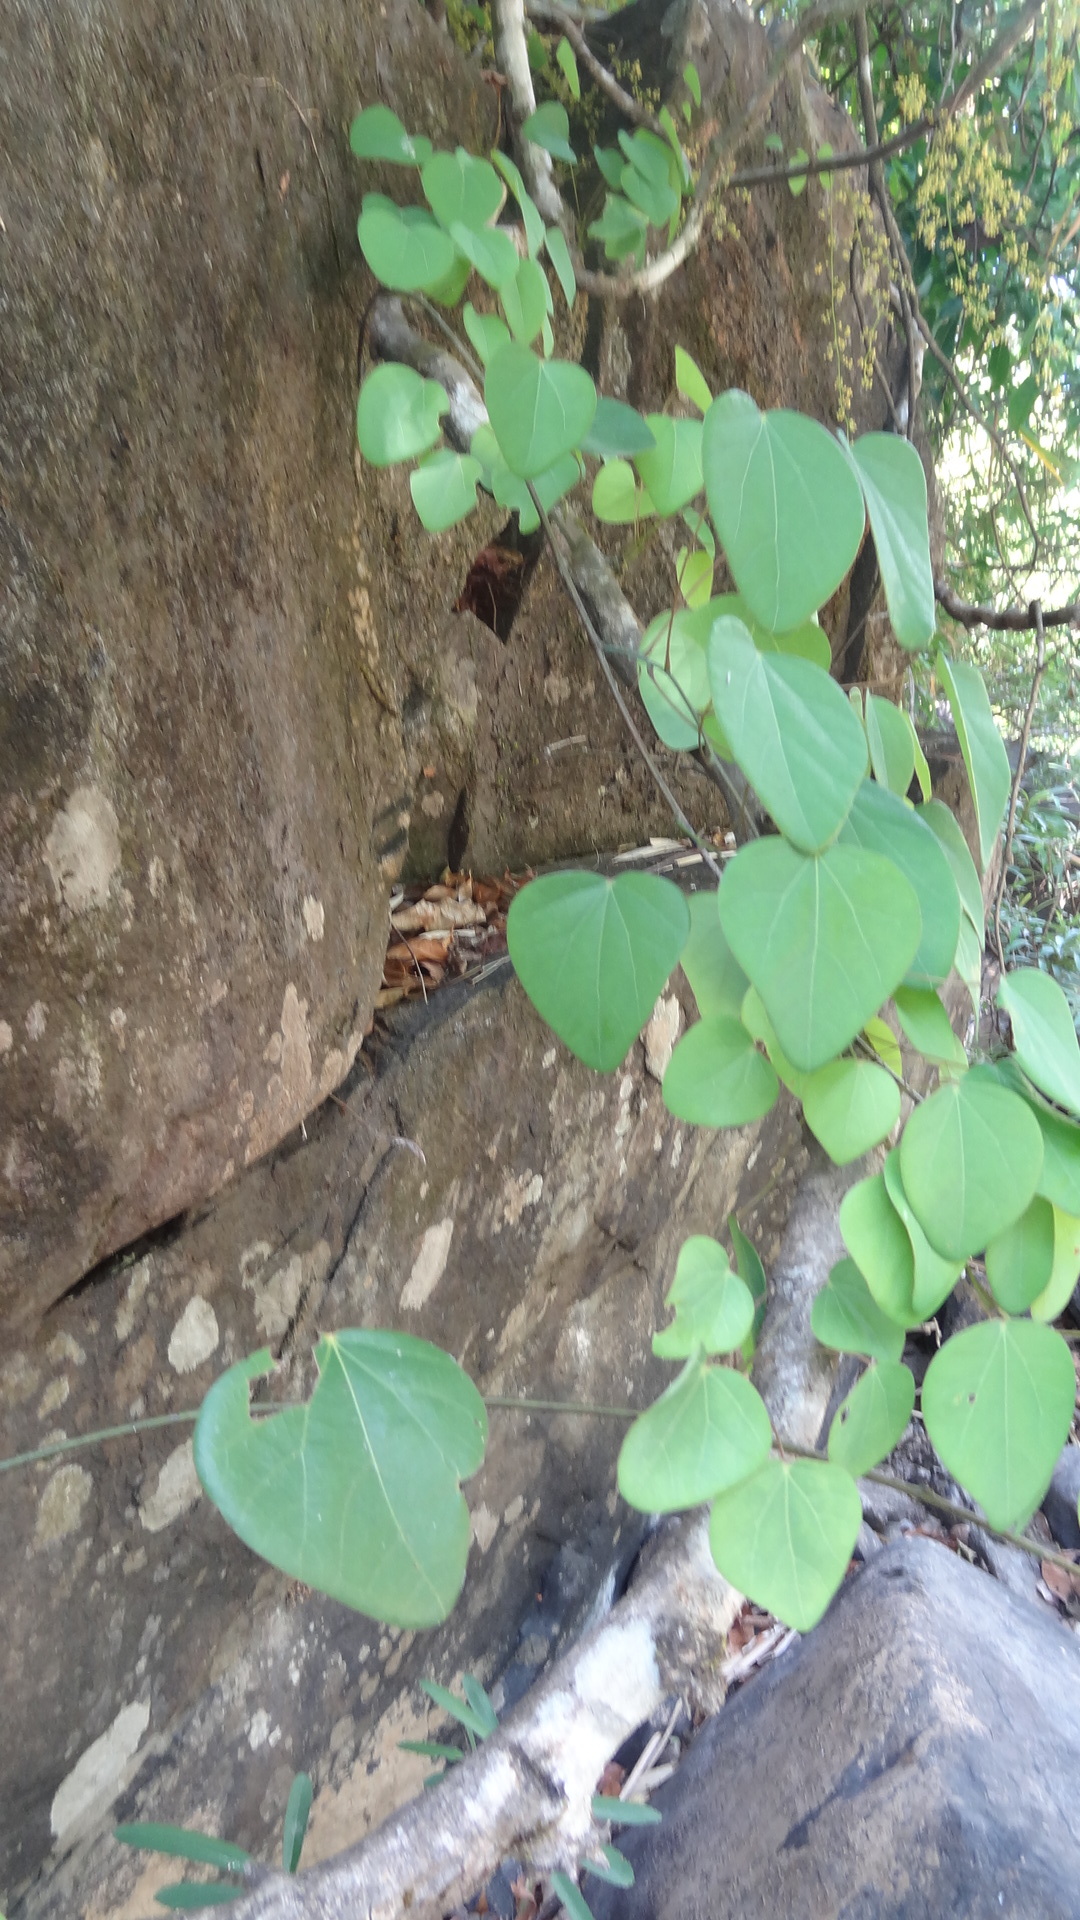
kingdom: Plantae
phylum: Tracheophyta
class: Magnoliopsida
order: Ranunculales
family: Menispermaceae
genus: Diploclisia
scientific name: Diploclisia glaucescens
